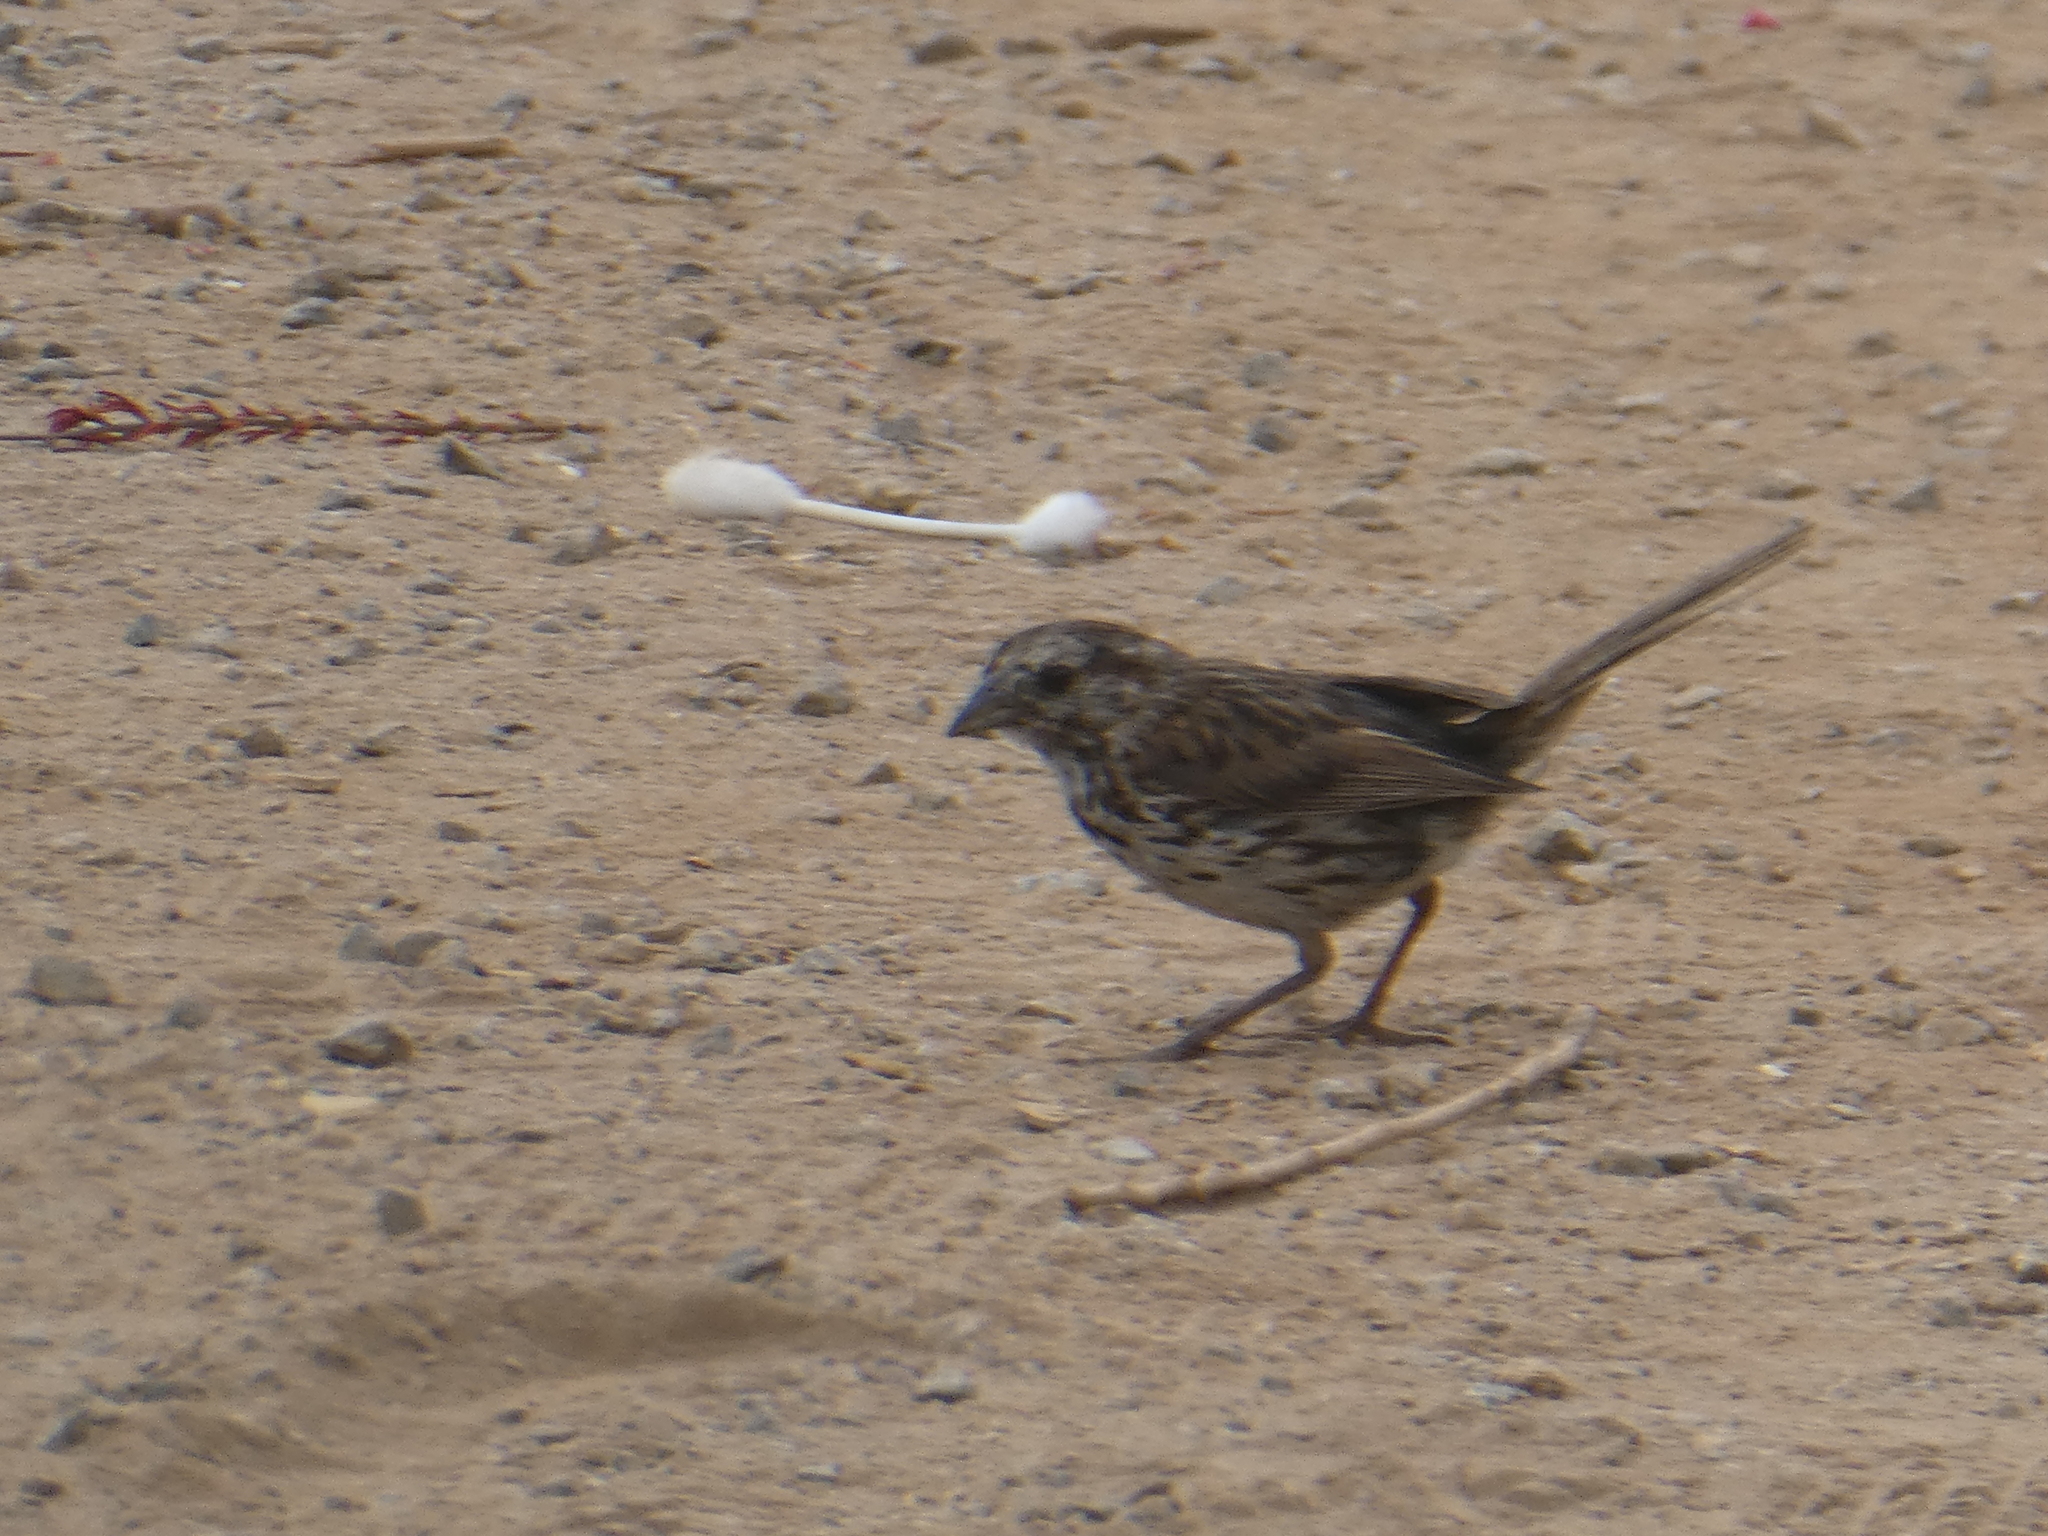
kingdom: Animalia
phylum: Chordata
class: Aves
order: Passeriformes
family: Passerellidae
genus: Melospiza
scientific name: Melospiza melodia
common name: Song sparrow
